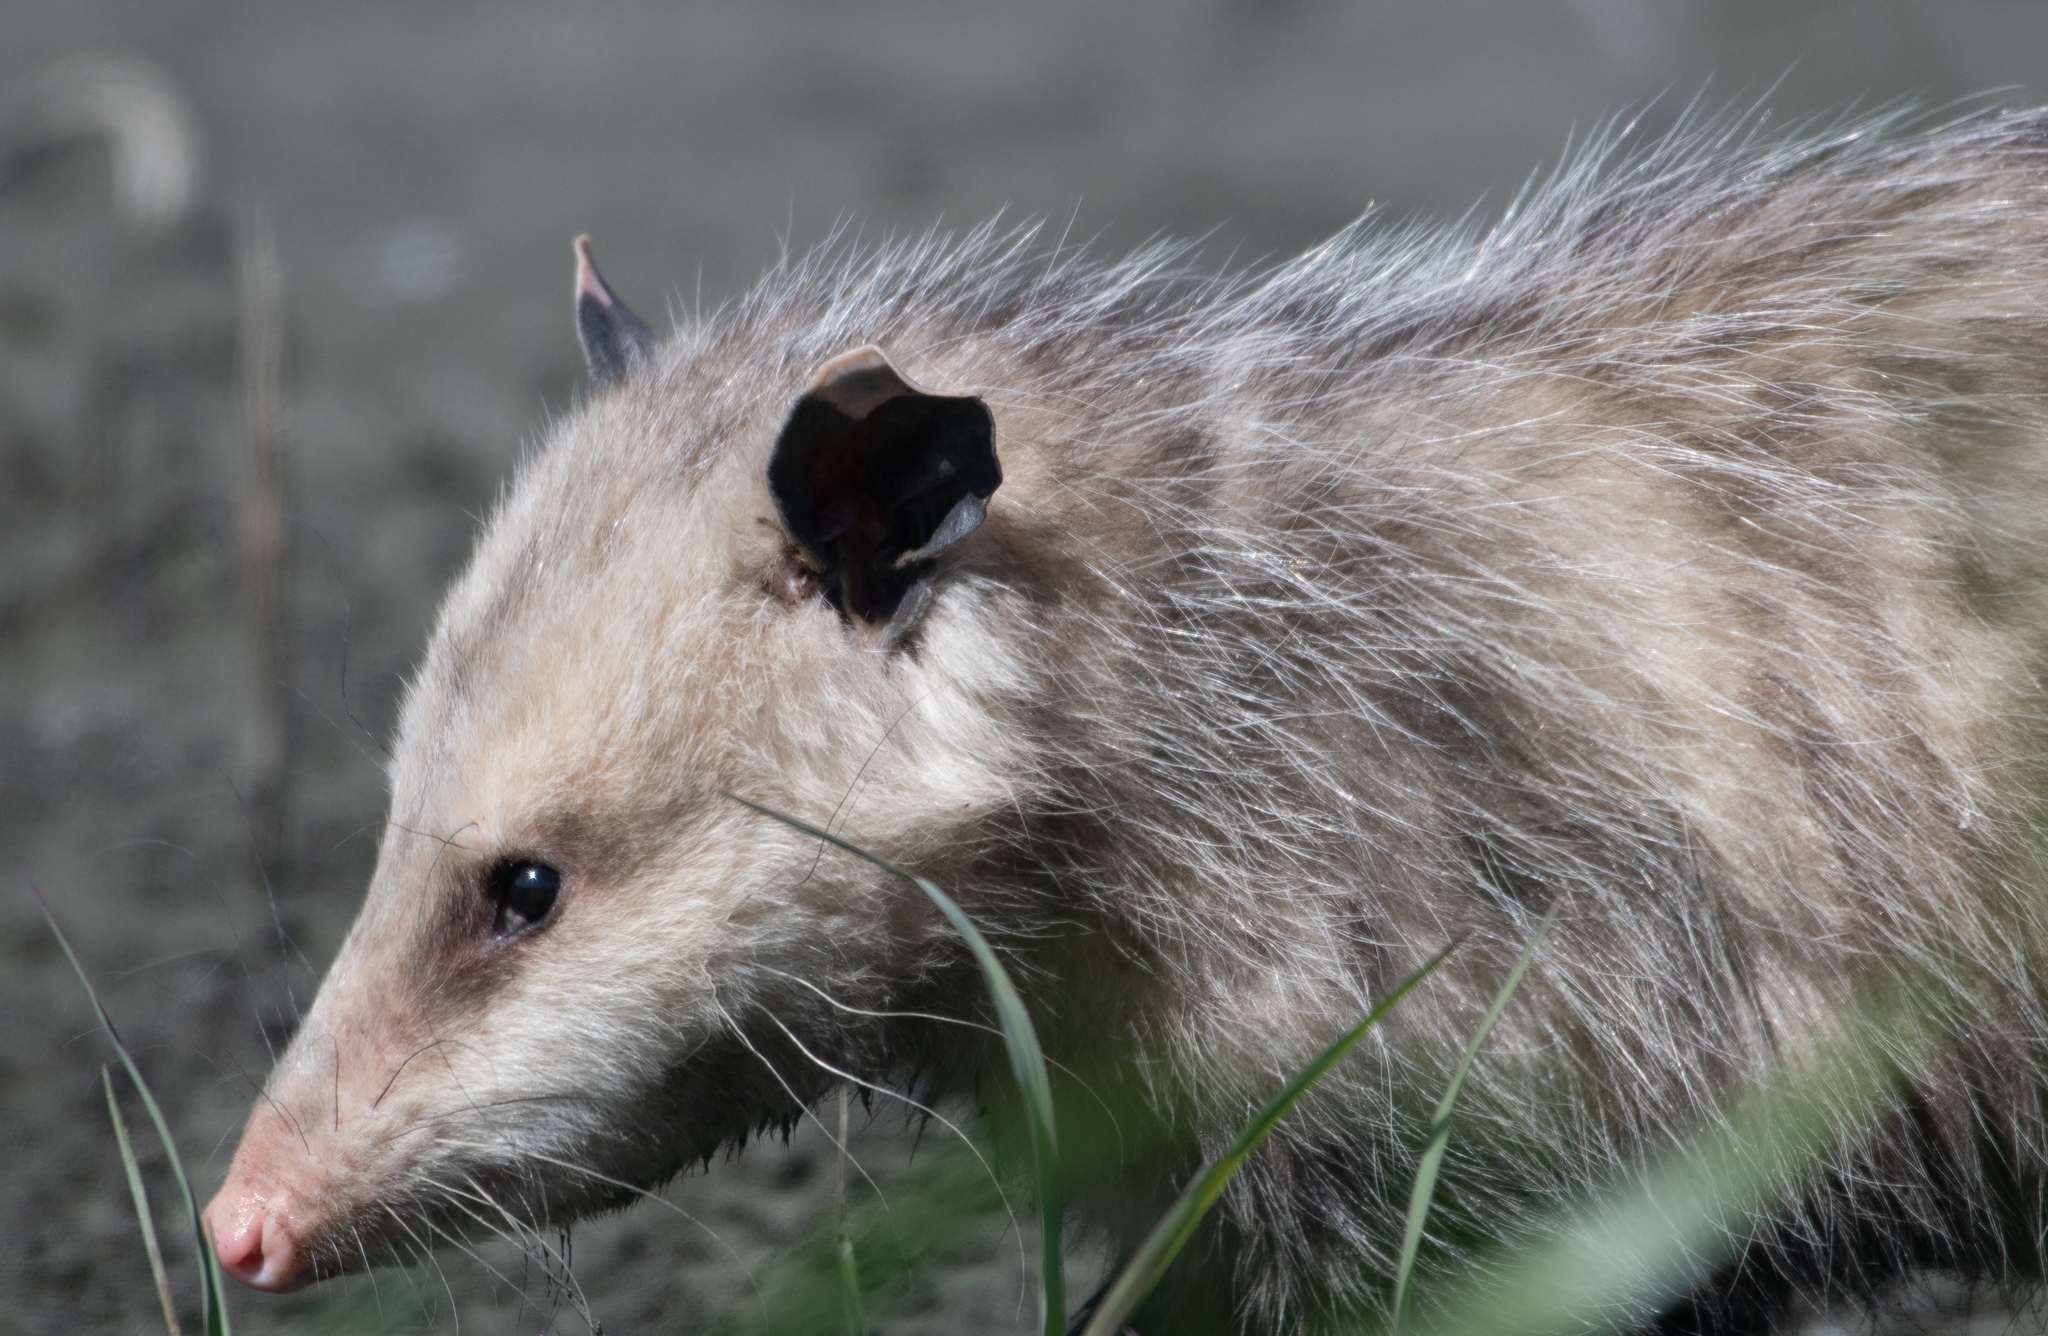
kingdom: Animalia
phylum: Chordata
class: Mammalia
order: Didelphimorphia
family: Didelphidae
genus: Didelphis
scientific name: Didelphis virginiana
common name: Virginia opossum
